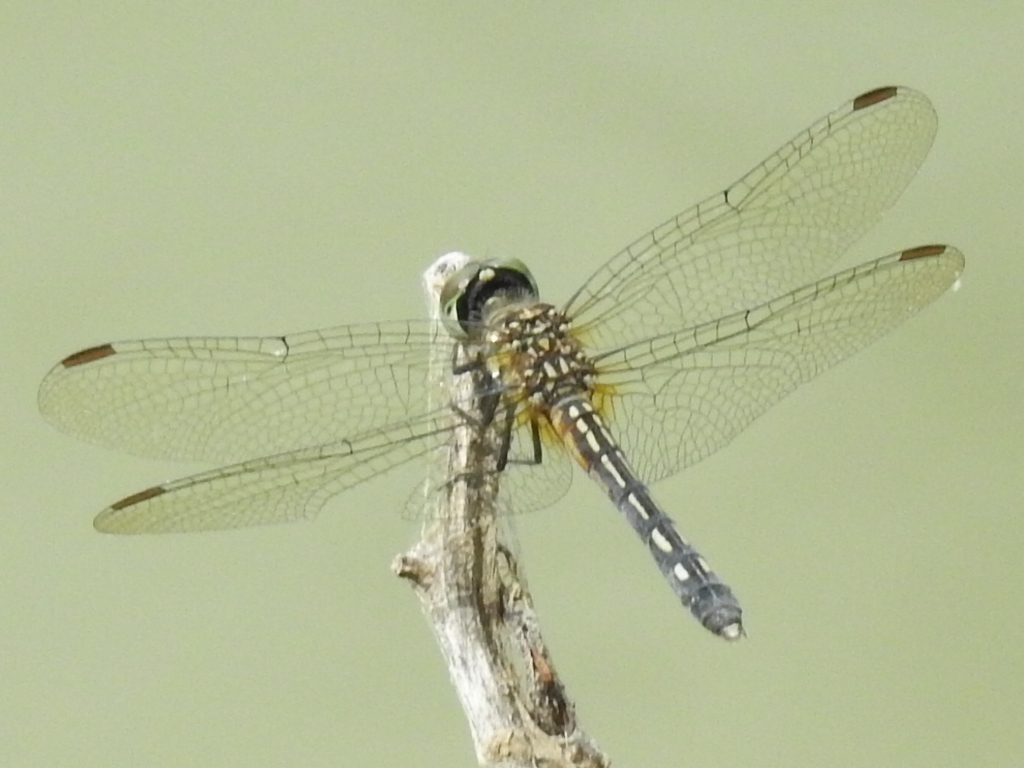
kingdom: Animalia
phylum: Arthropoda
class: Insecta
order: Odonata
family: Libellulidae
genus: Pachydiplax
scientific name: Pachydiplax longipennis
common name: Blue dasher
